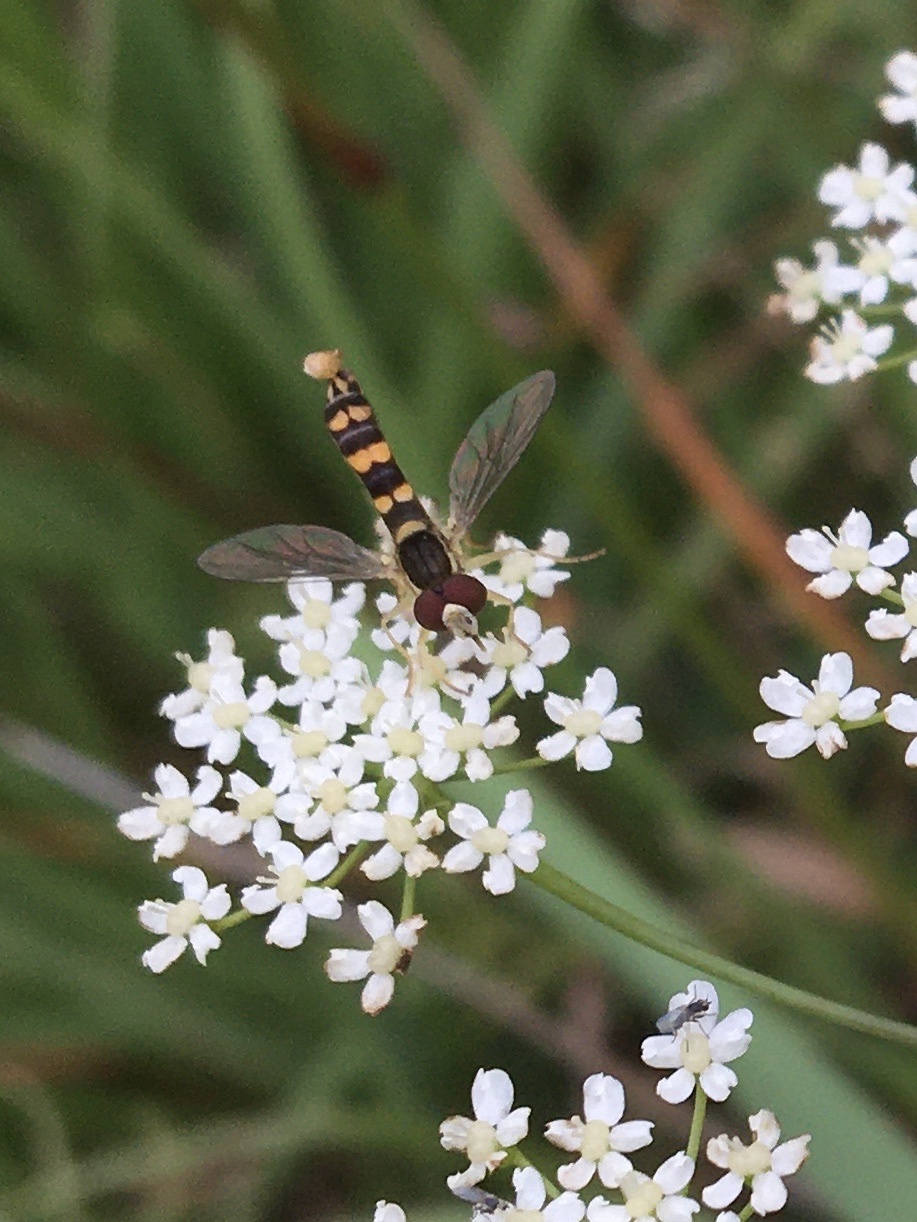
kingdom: Animalia
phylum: Arthropoda
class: Insecta
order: Diptera
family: Syrphidae
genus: Sphaerophoria
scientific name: Sphaerophoria
